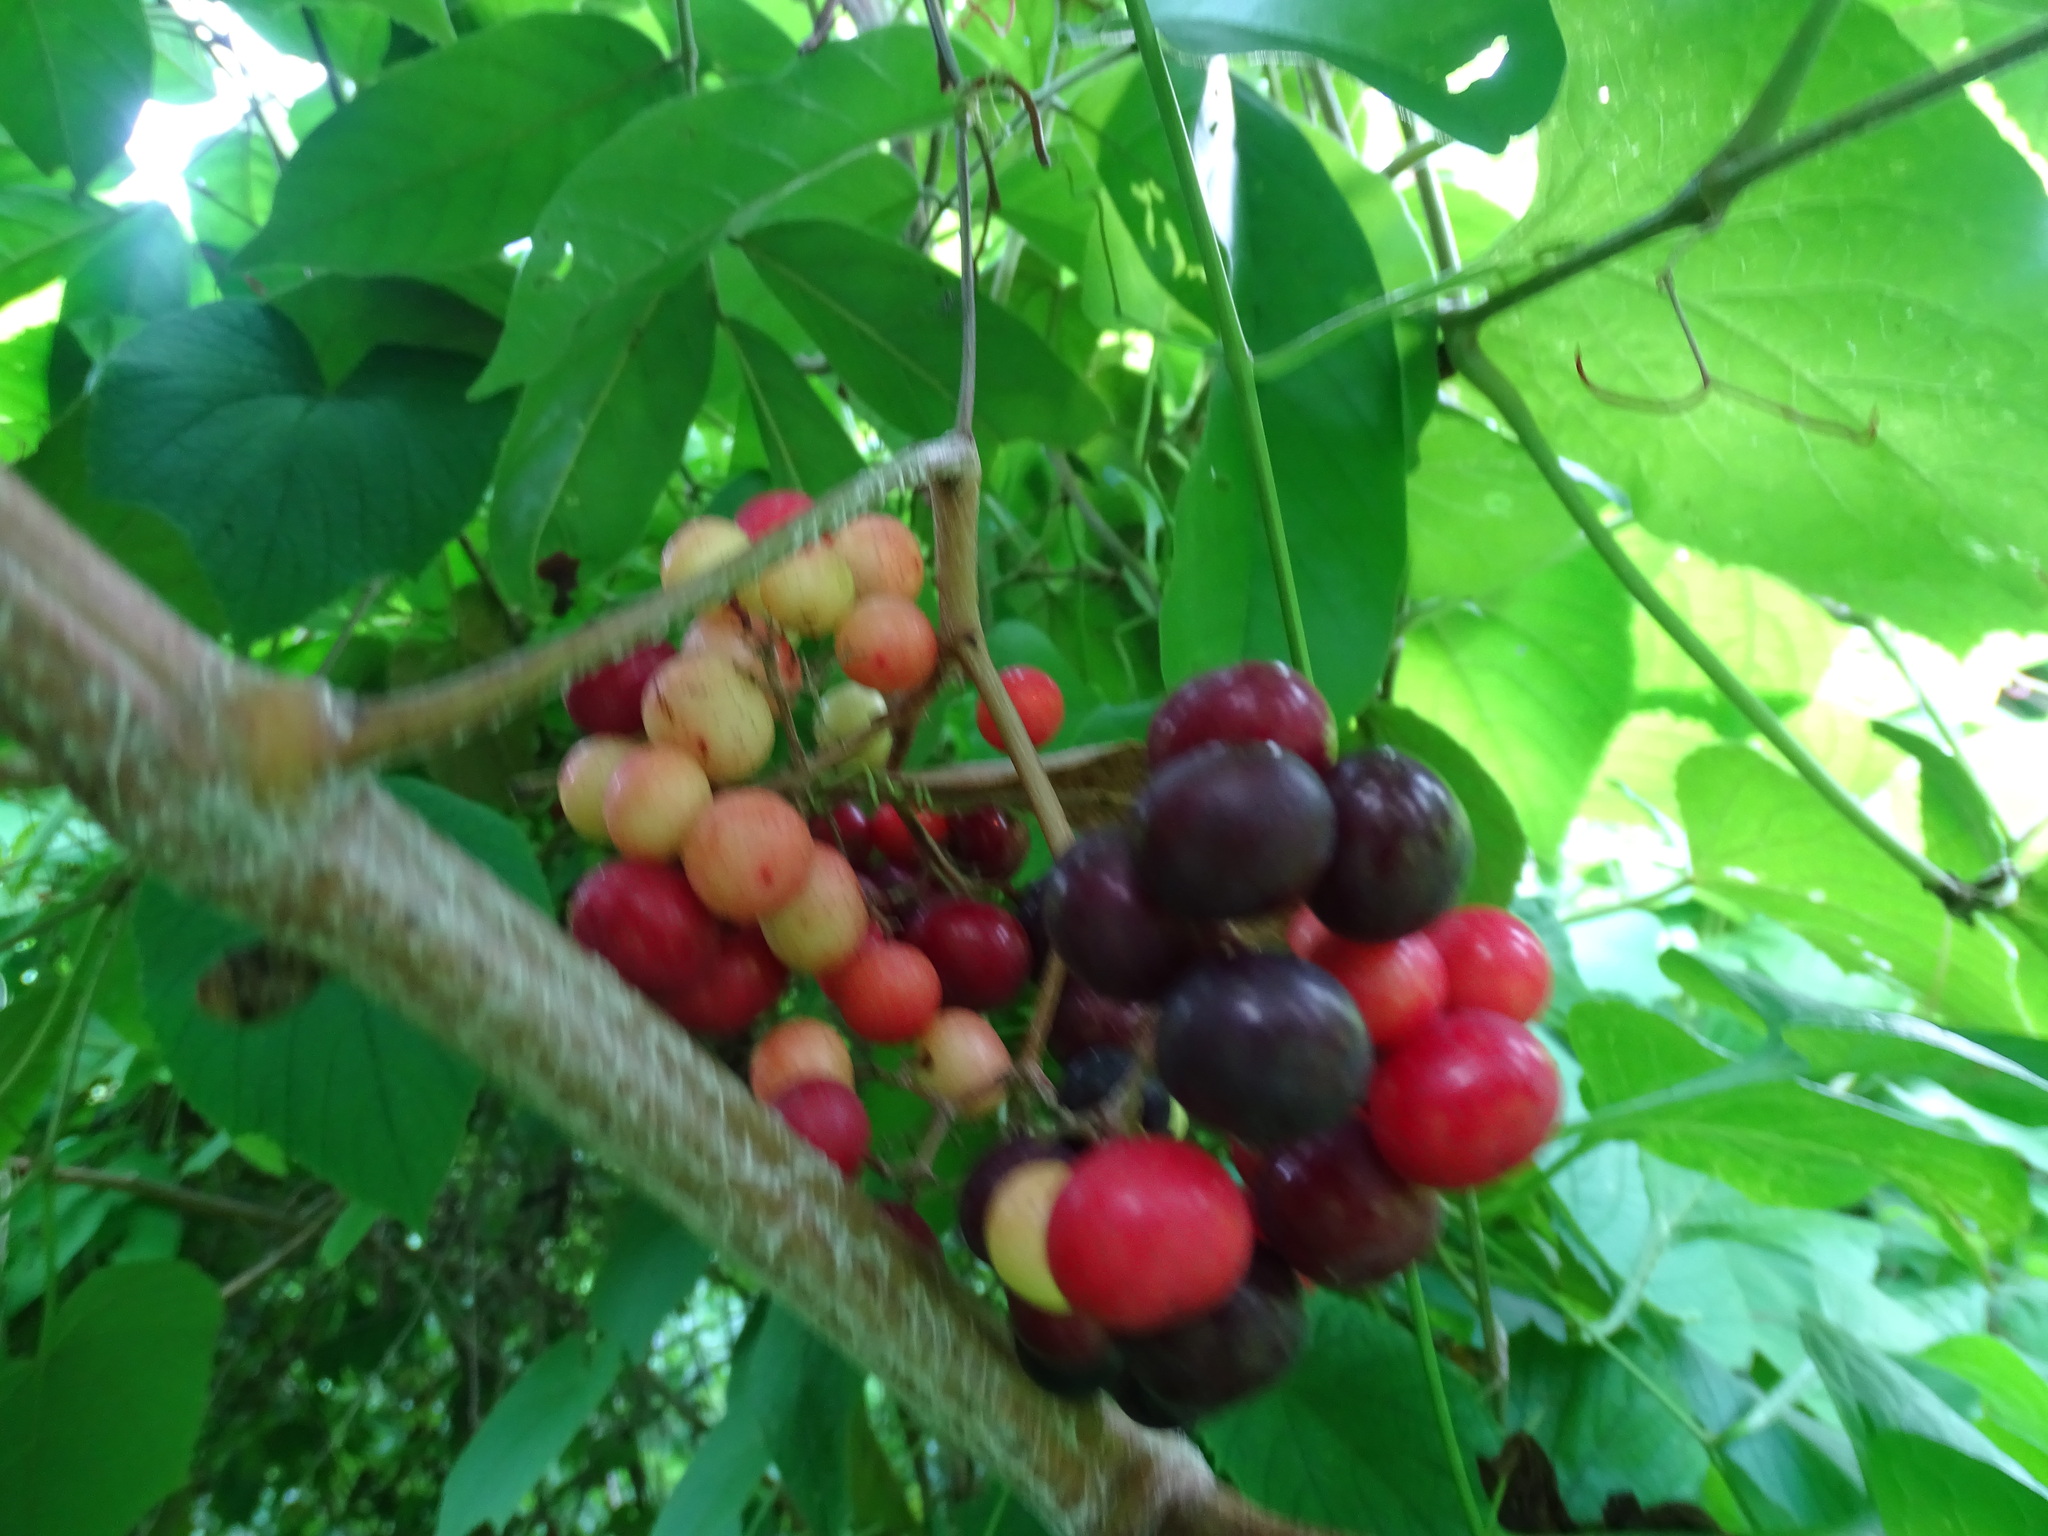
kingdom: Plantae
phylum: Tracheophyta
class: Magnoliopsida
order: Vitales
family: Vitaceae
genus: Ampelocissus
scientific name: Ampelocissus mesoamericana
